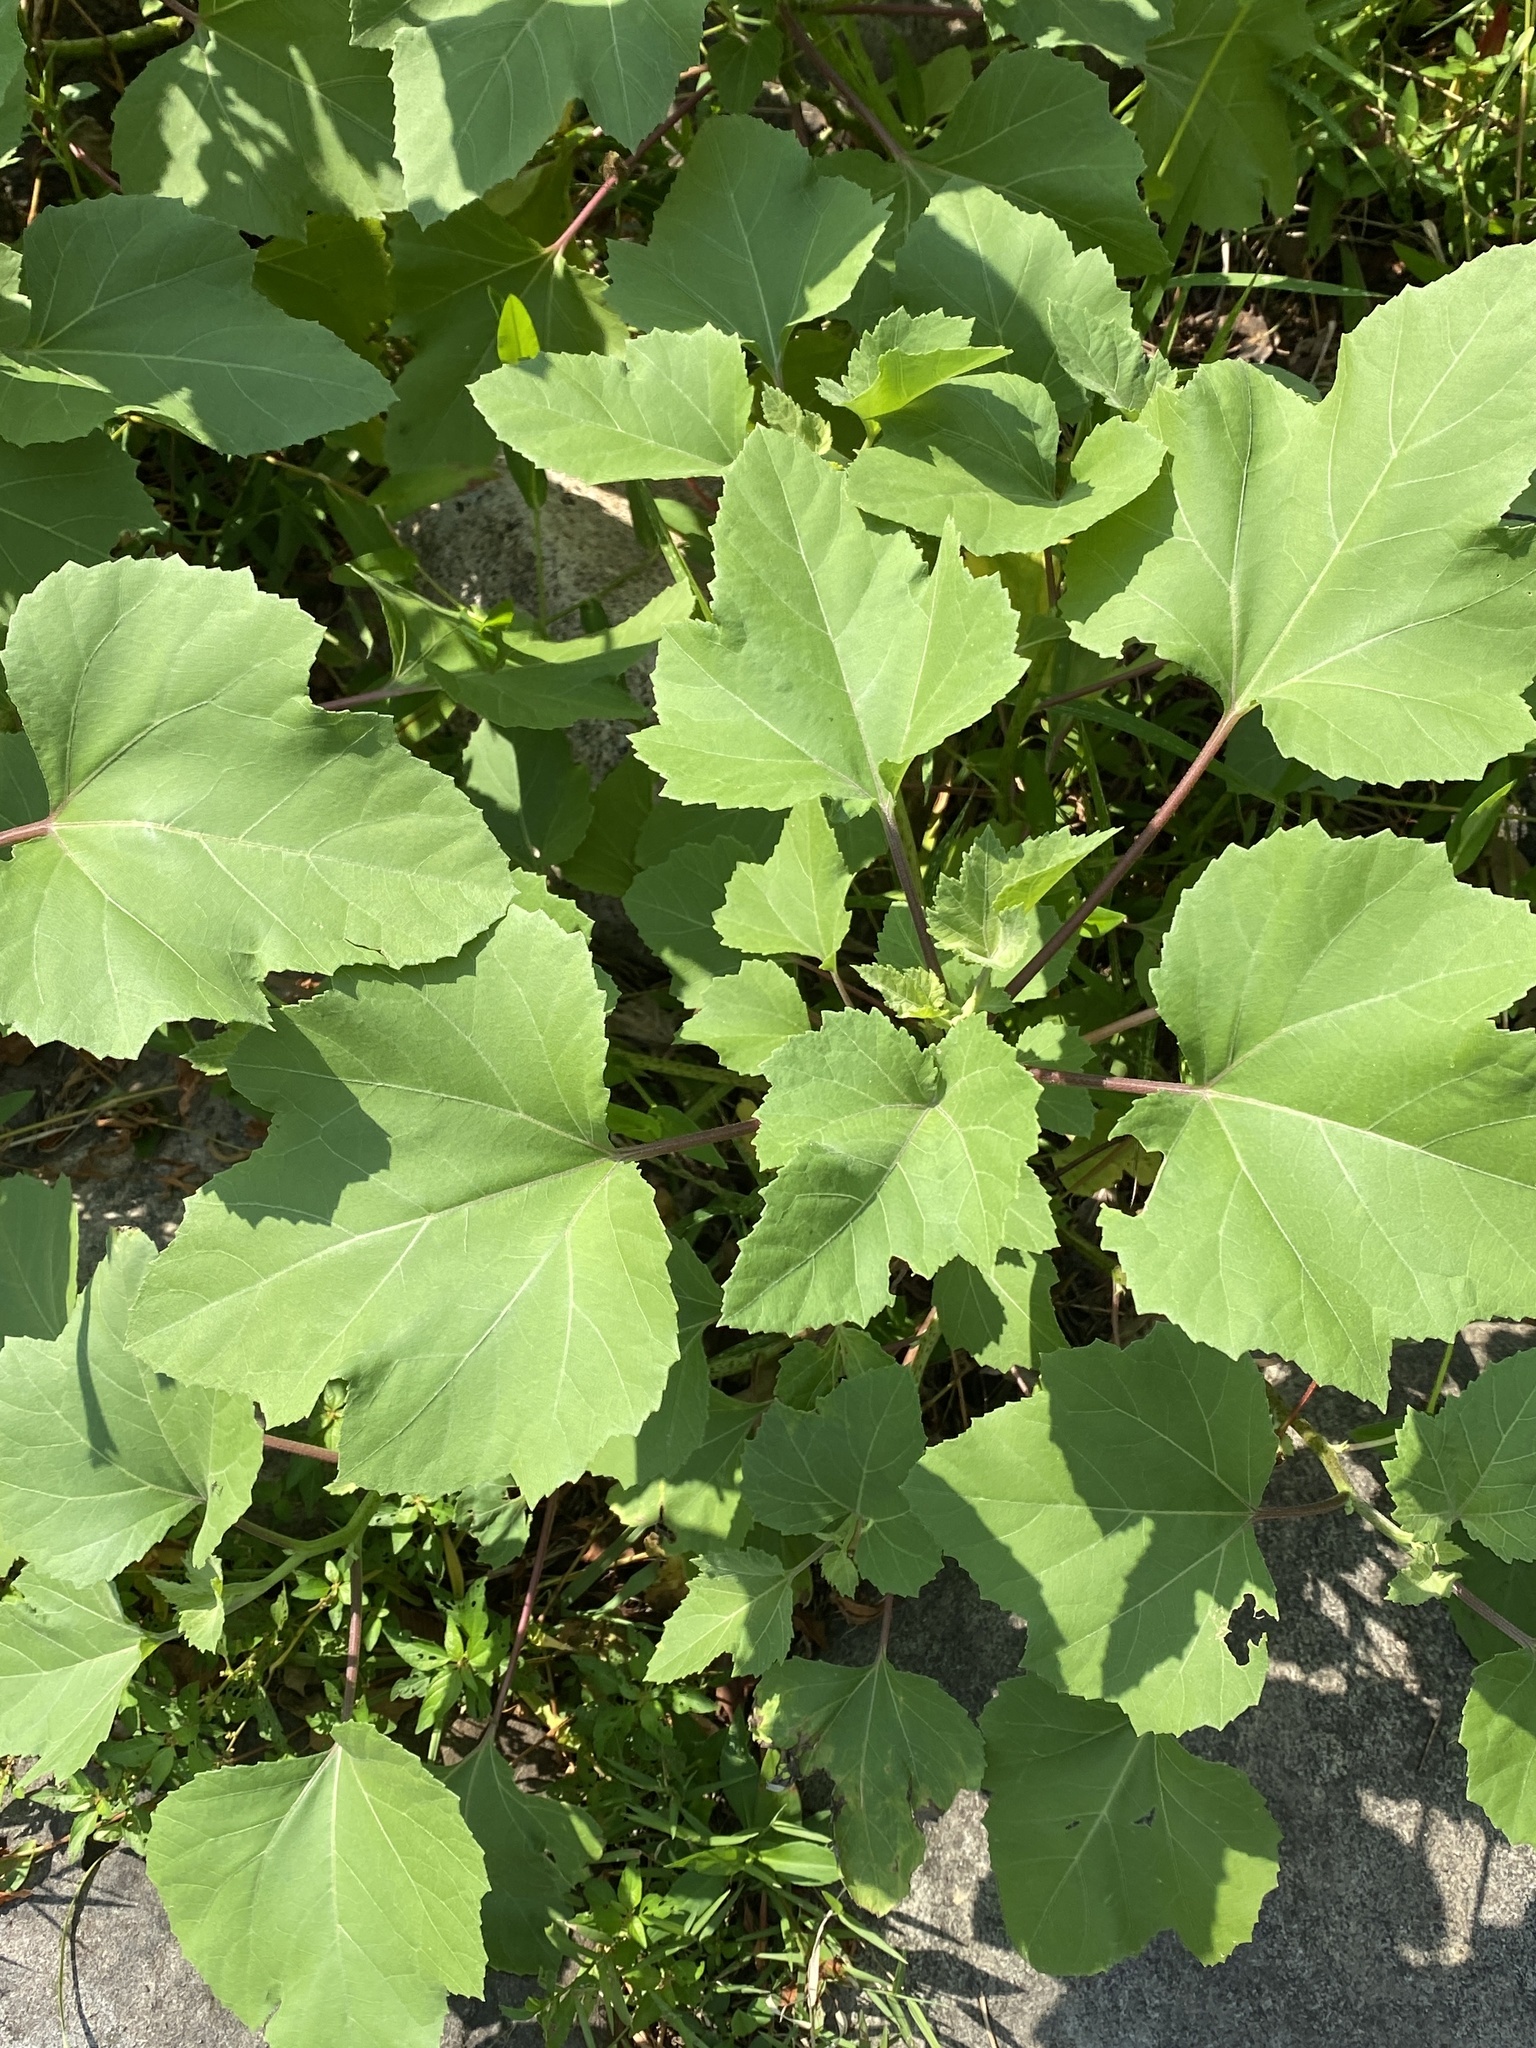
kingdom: Plantae
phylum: Tracheophyta
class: Magnoliopsida
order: Asterales
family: Asteraceae
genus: Xanthium
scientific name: Xanthium strumarium
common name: Rough cocklebur
